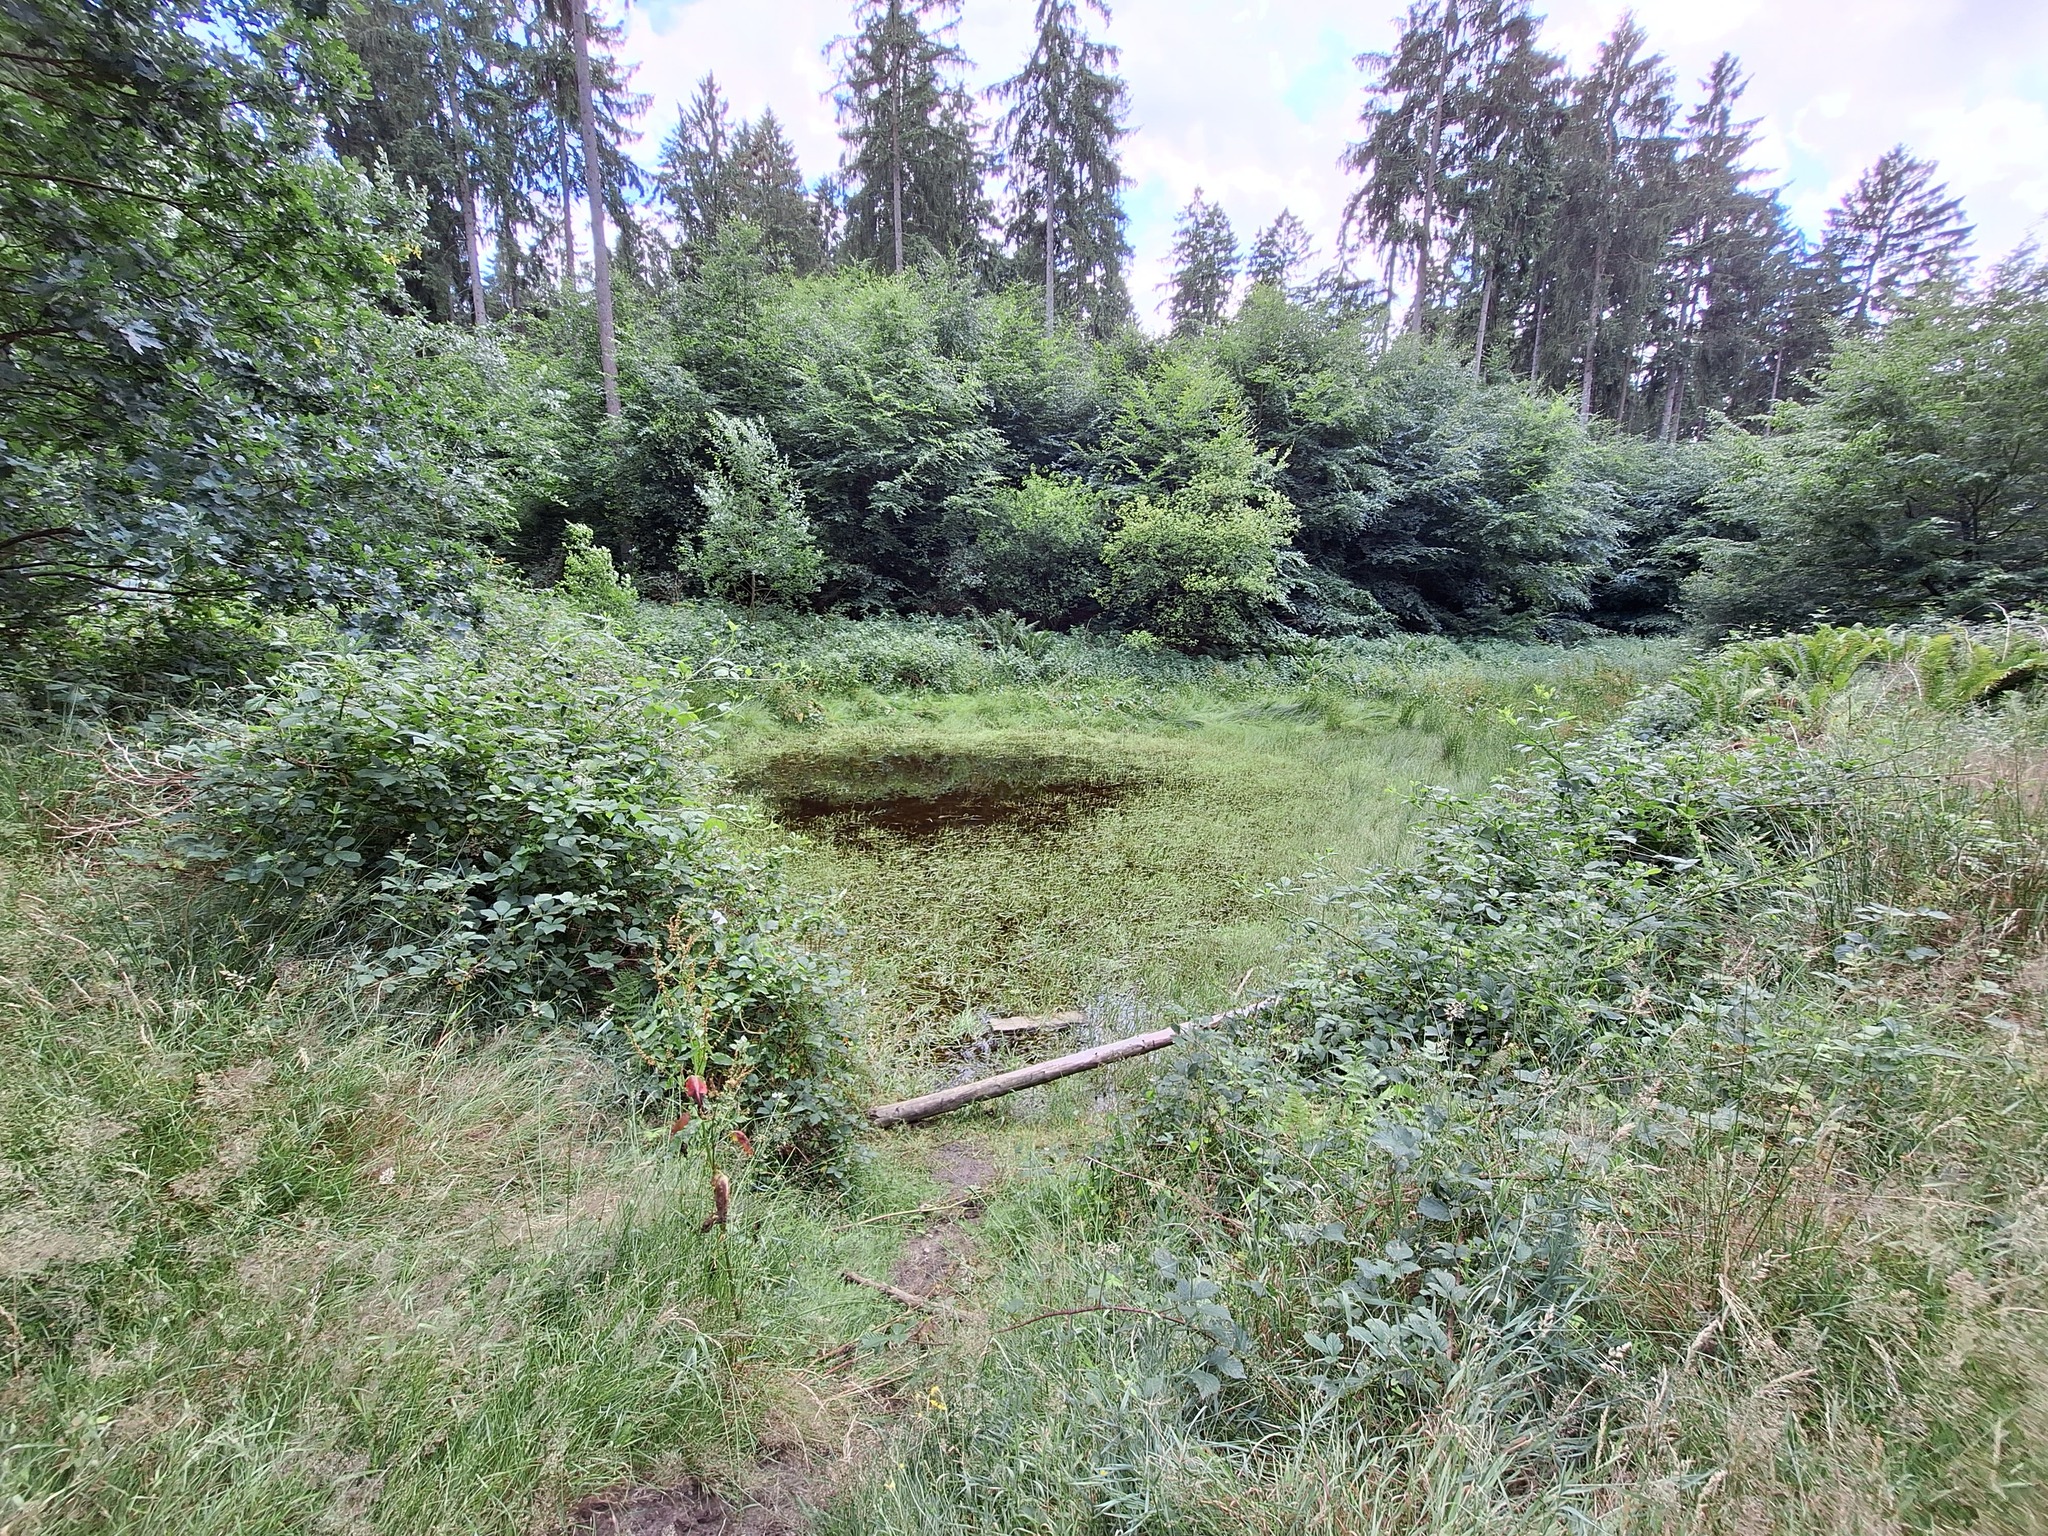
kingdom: Animalia
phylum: Arthropoda
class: Insecta
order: Lepidoptera
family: Hesperiidae
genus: Ochlodes
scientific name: Ochlodes venata
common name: Large skipper
